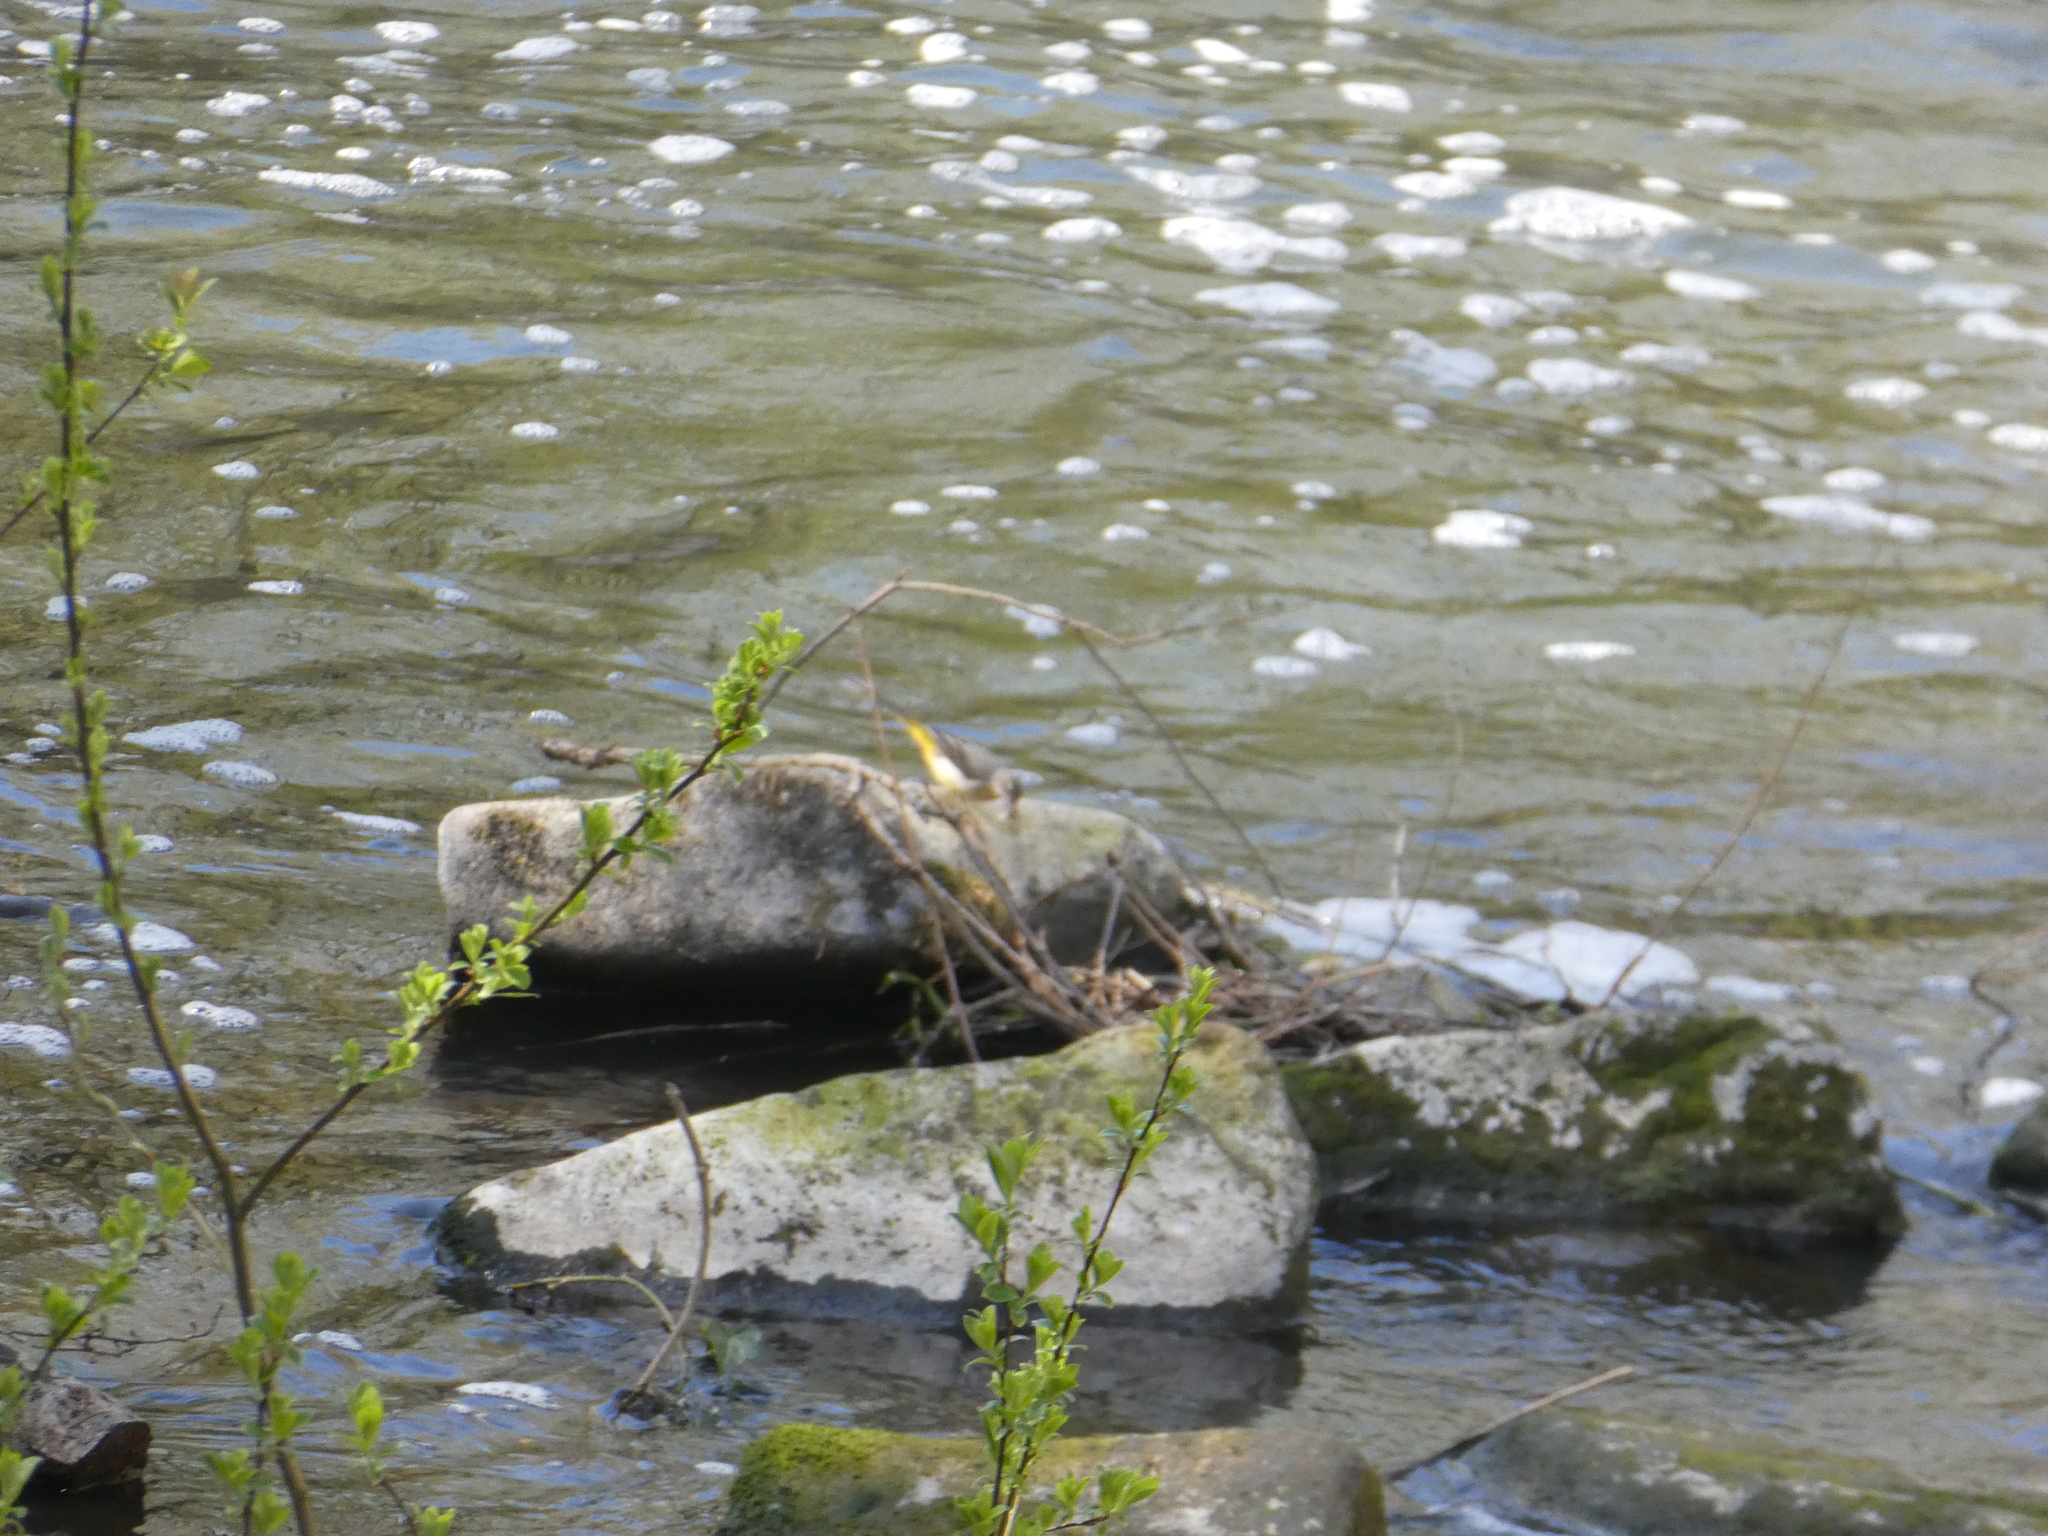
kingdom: Animalia
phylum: Chordata
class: Aves
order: Passeriformes
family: Motacillidae
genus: Motacilla
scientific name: Motacilla cinerea
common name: Grey wagtail
